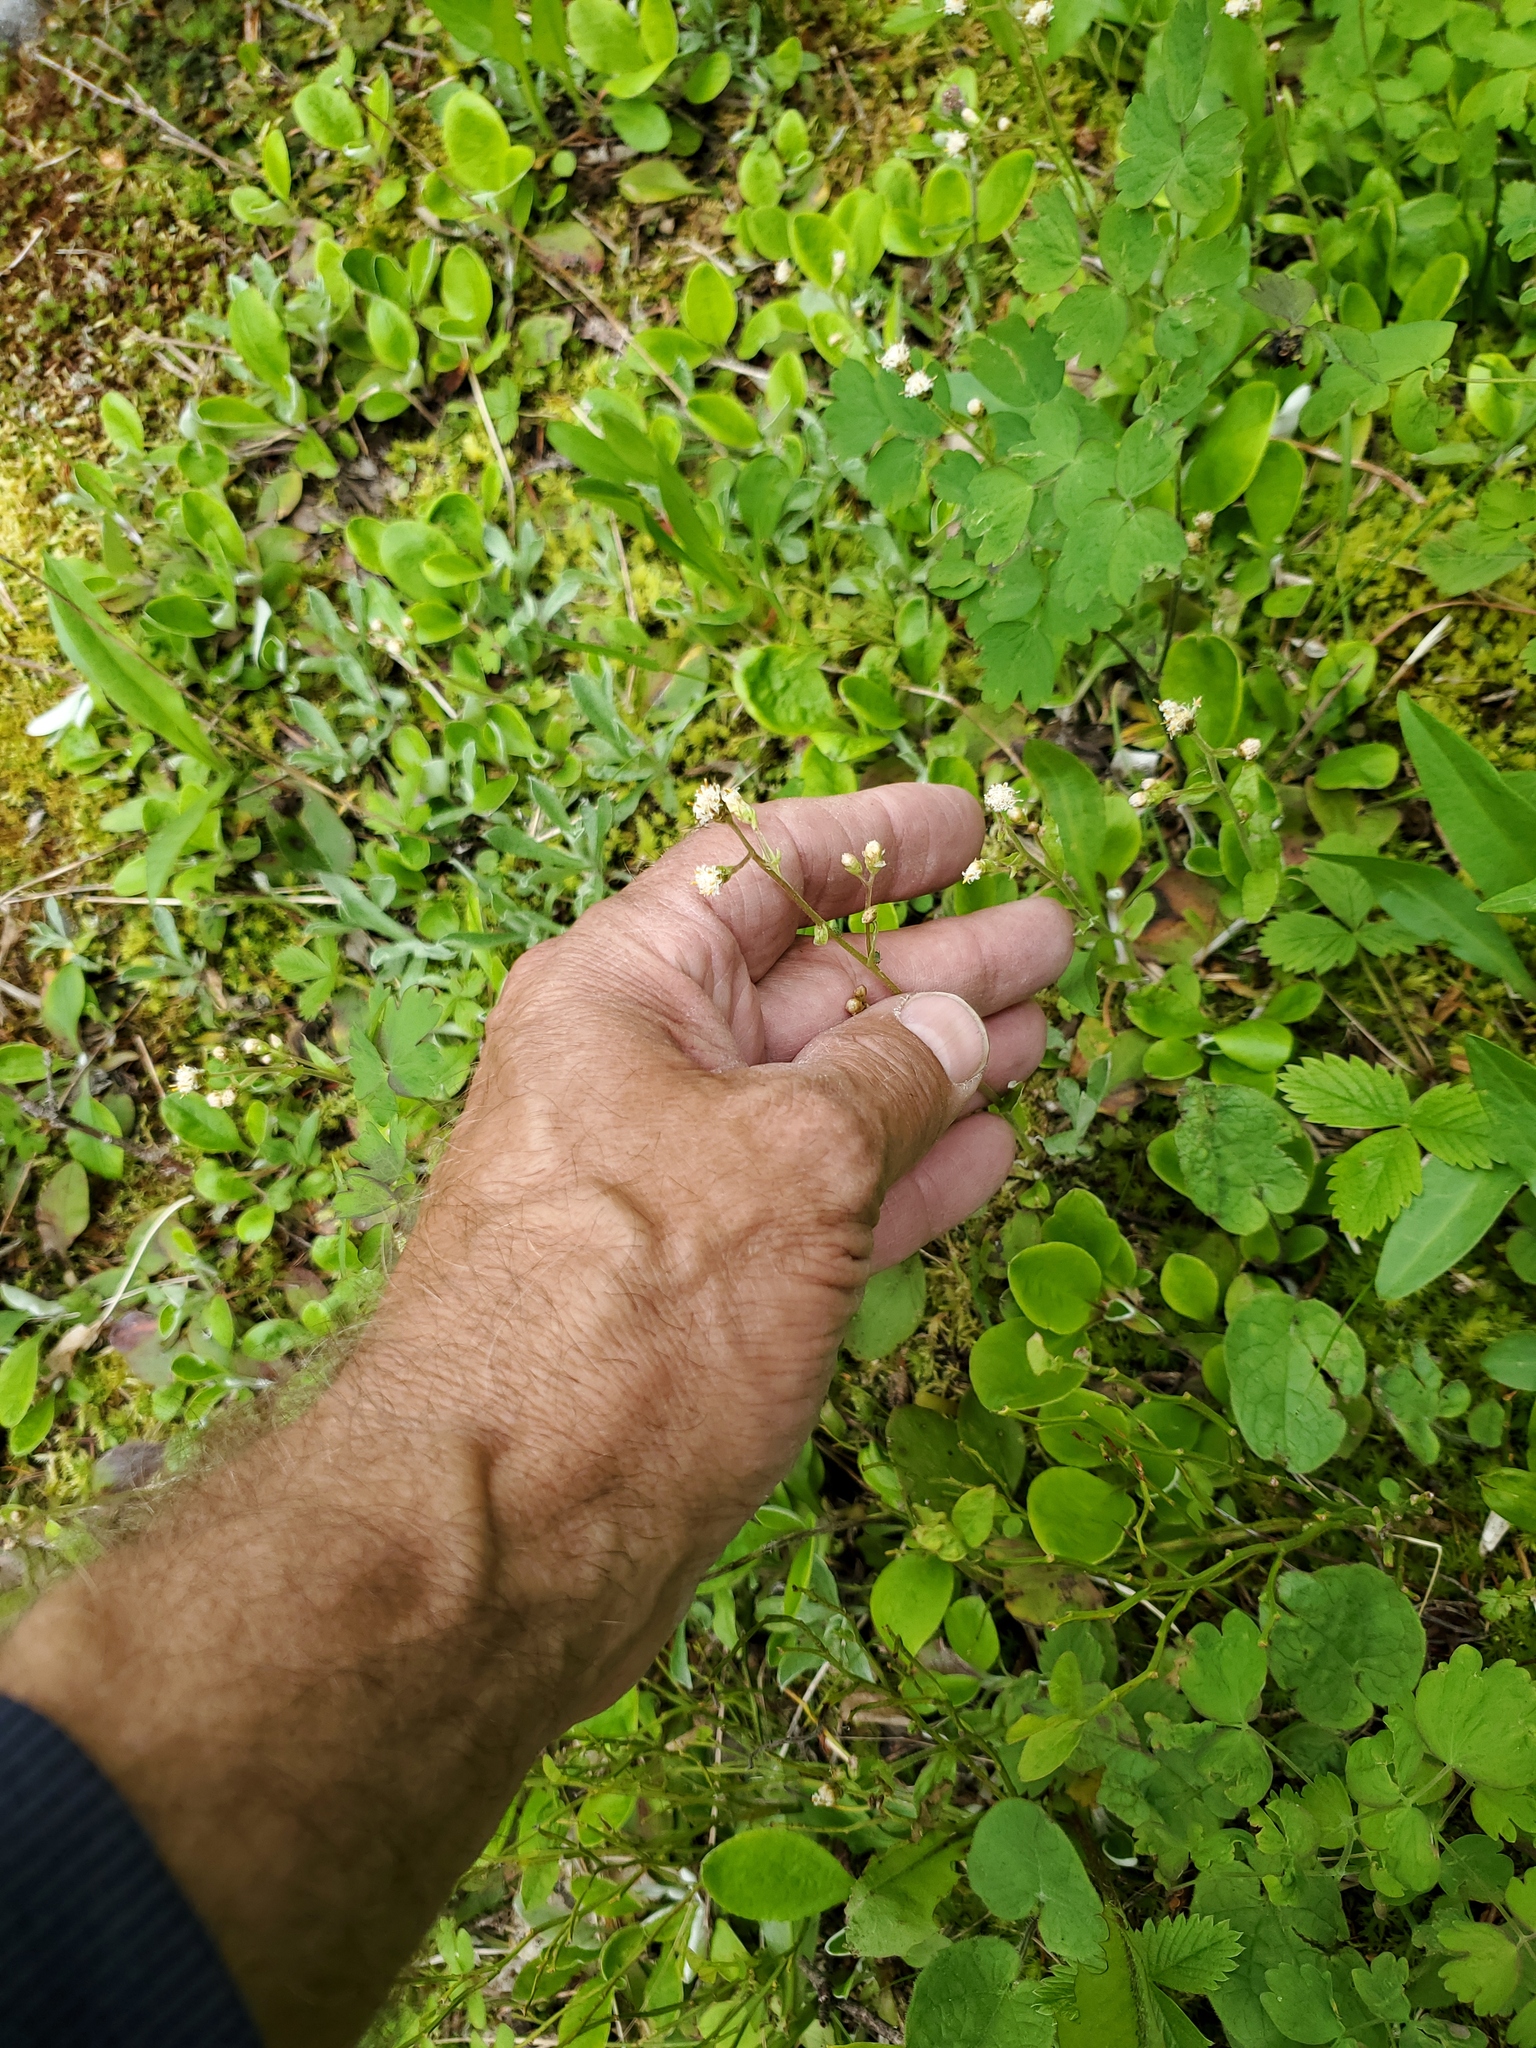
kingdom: Plantae
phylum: Tracheophyta
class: Magnoliopsida
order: Asterales
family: Asteraceae
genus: Antennaria
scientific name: Antennaria racemosa
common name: Racemose pussytoes
